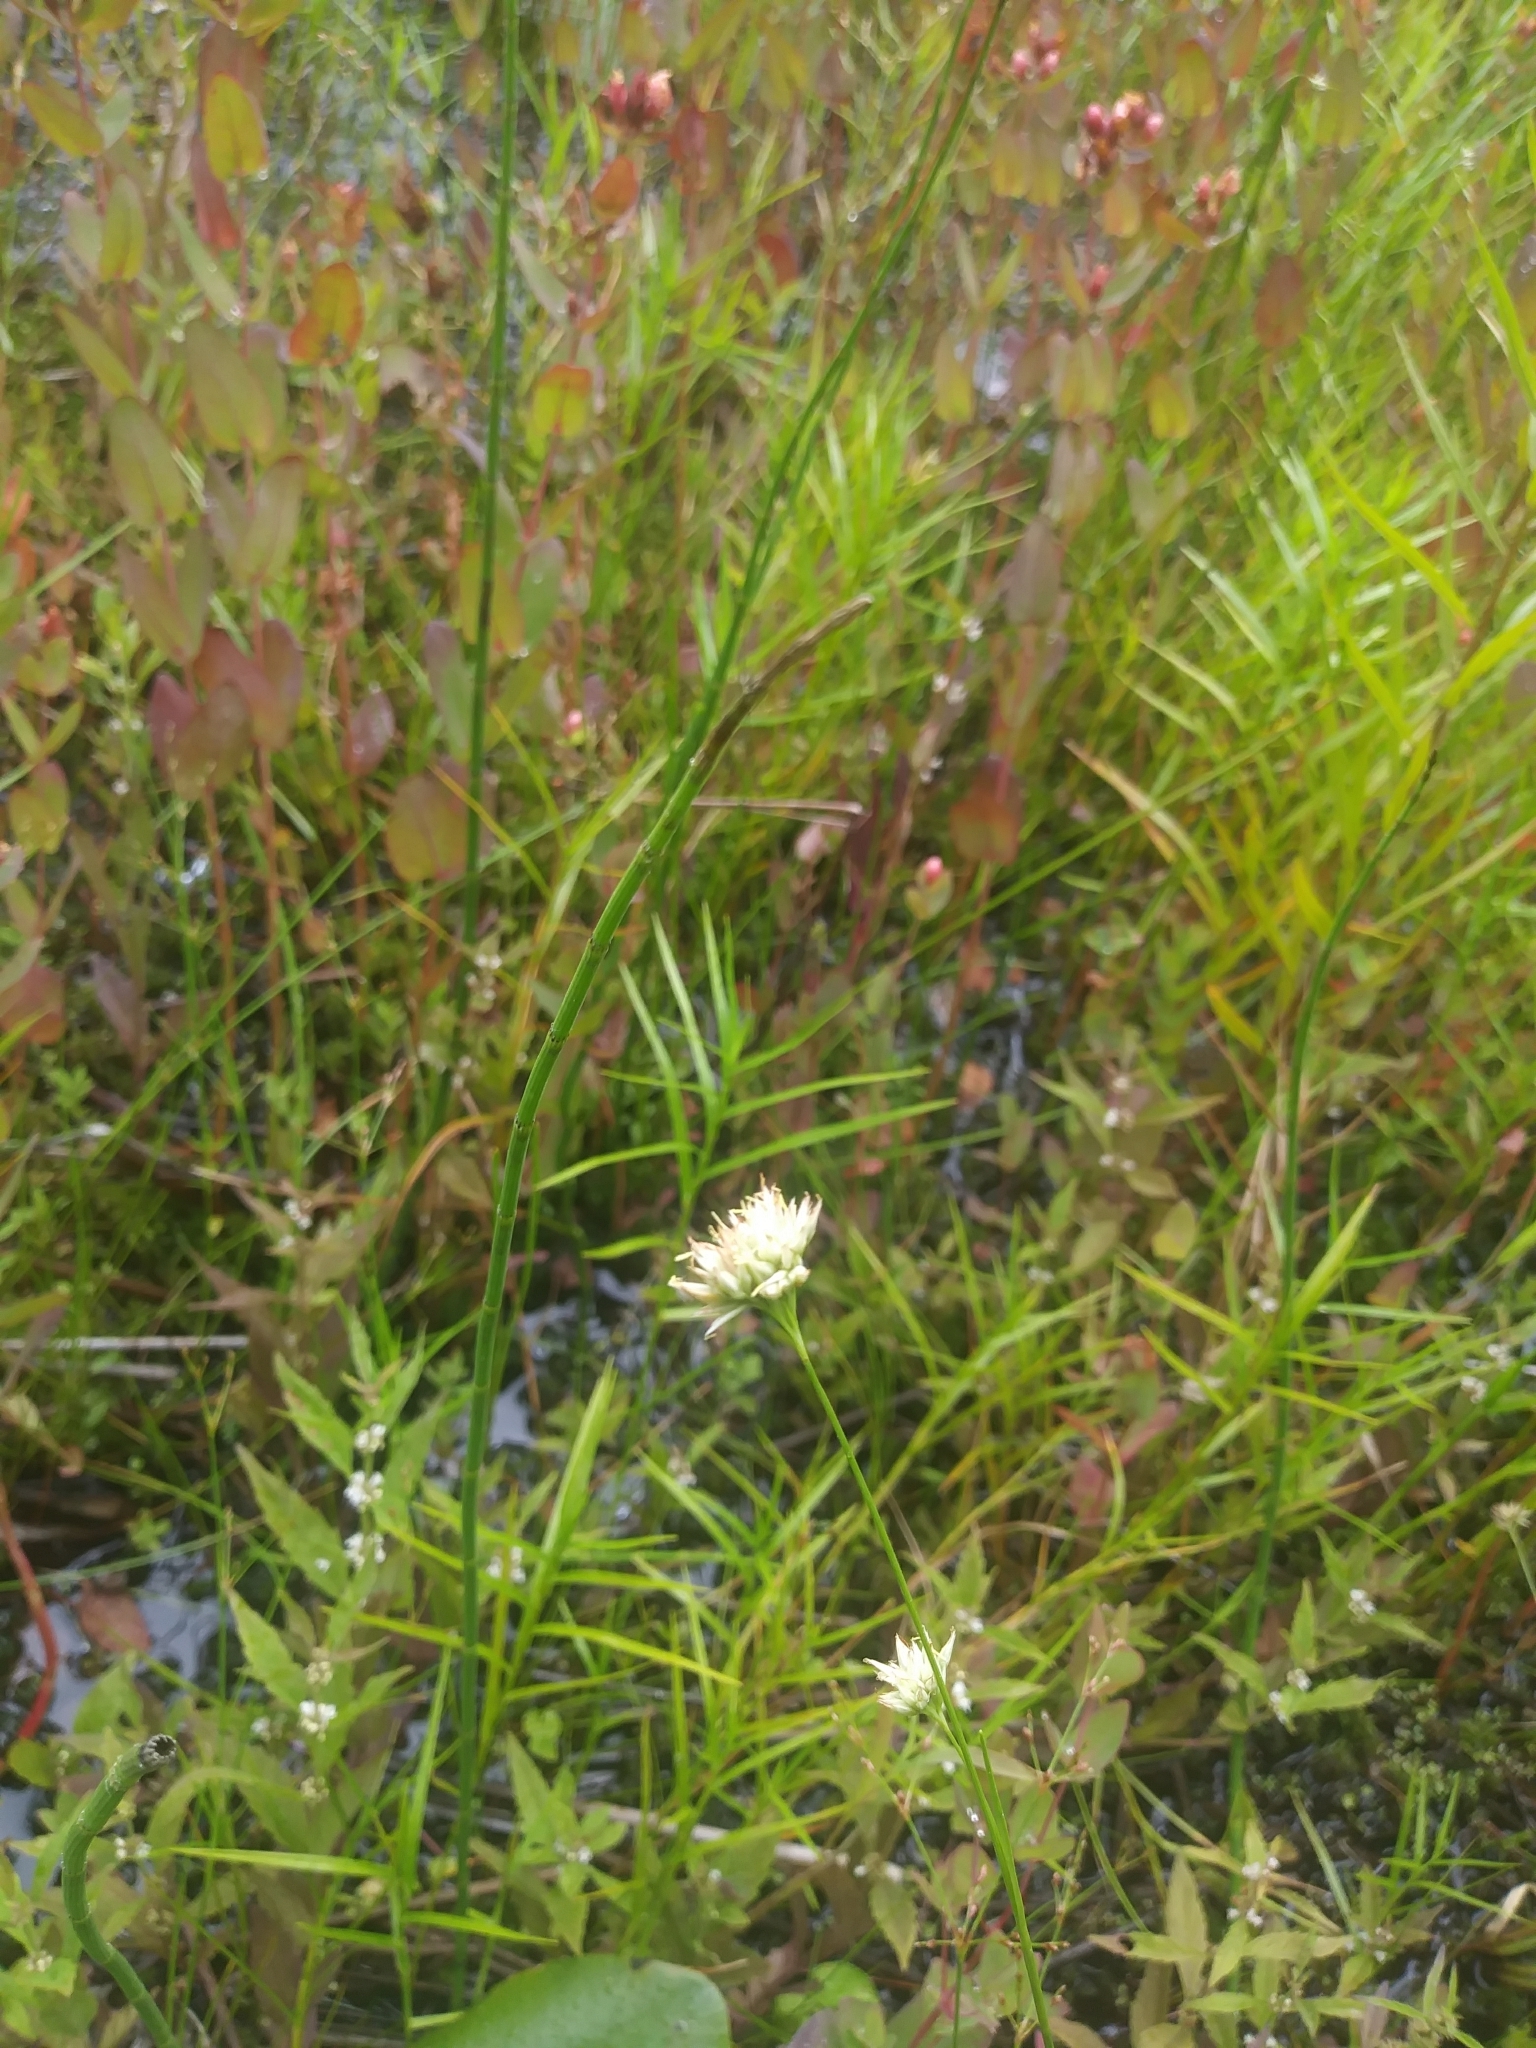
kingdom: Plantae
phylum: Tracheophyta
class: Liliopsida
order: Poales
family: Cyperaceae
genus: Rhynchospora
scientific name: Rhynchospora alba
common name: White beak-sedge
